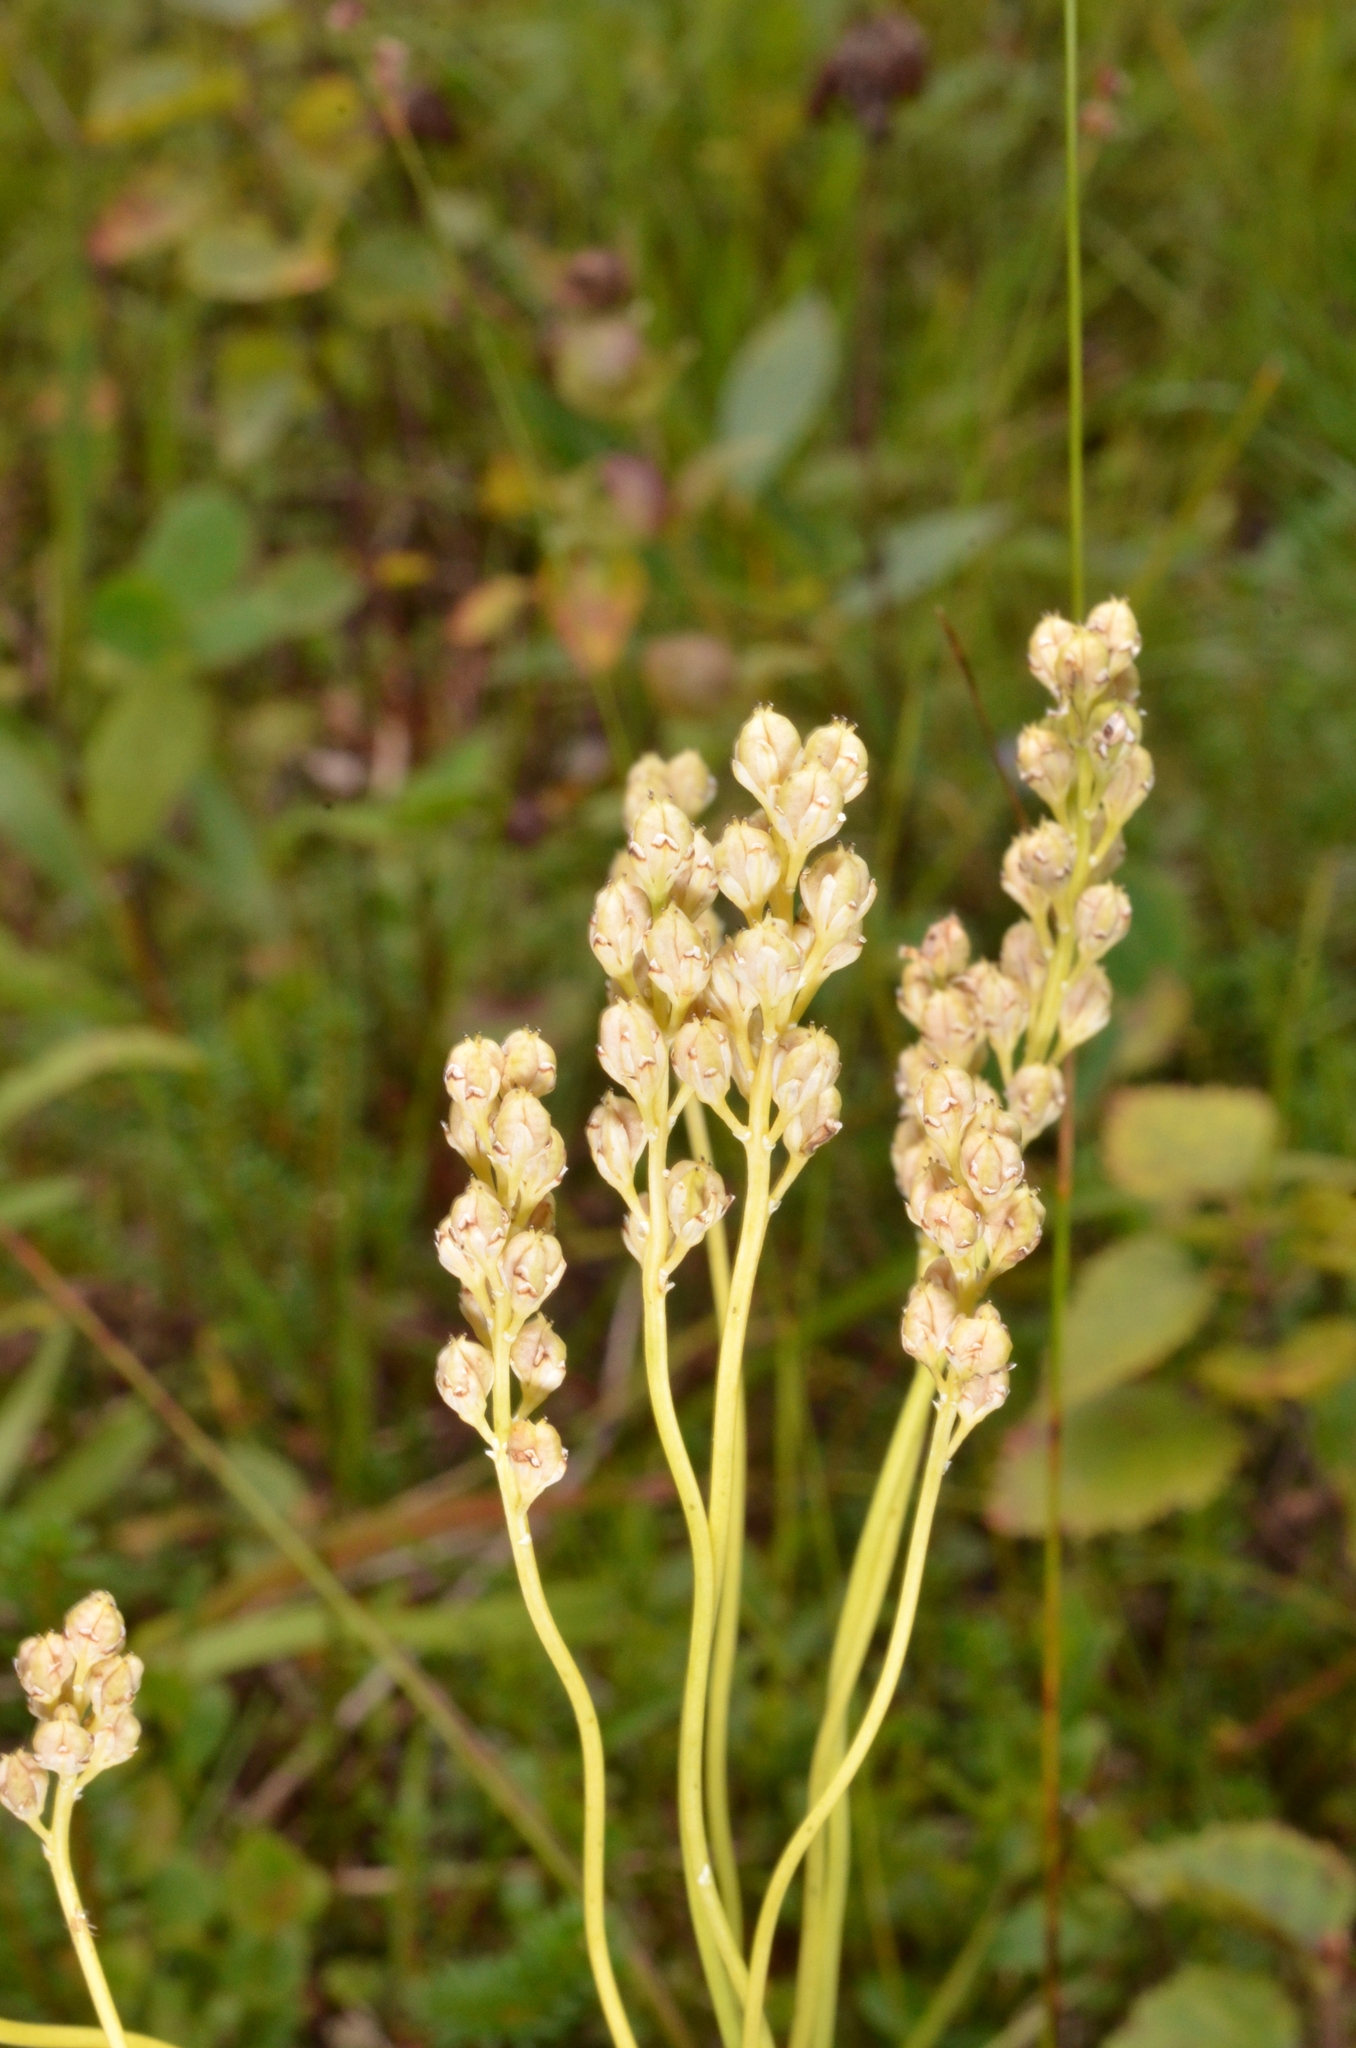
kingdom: Plantae
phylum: Tracheophyta
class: Liliopsida
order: Alismatales
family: Tofieldiaceae
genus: Tofieldia
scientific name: Tofieldia pusilla
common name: Scottish false asphodel
